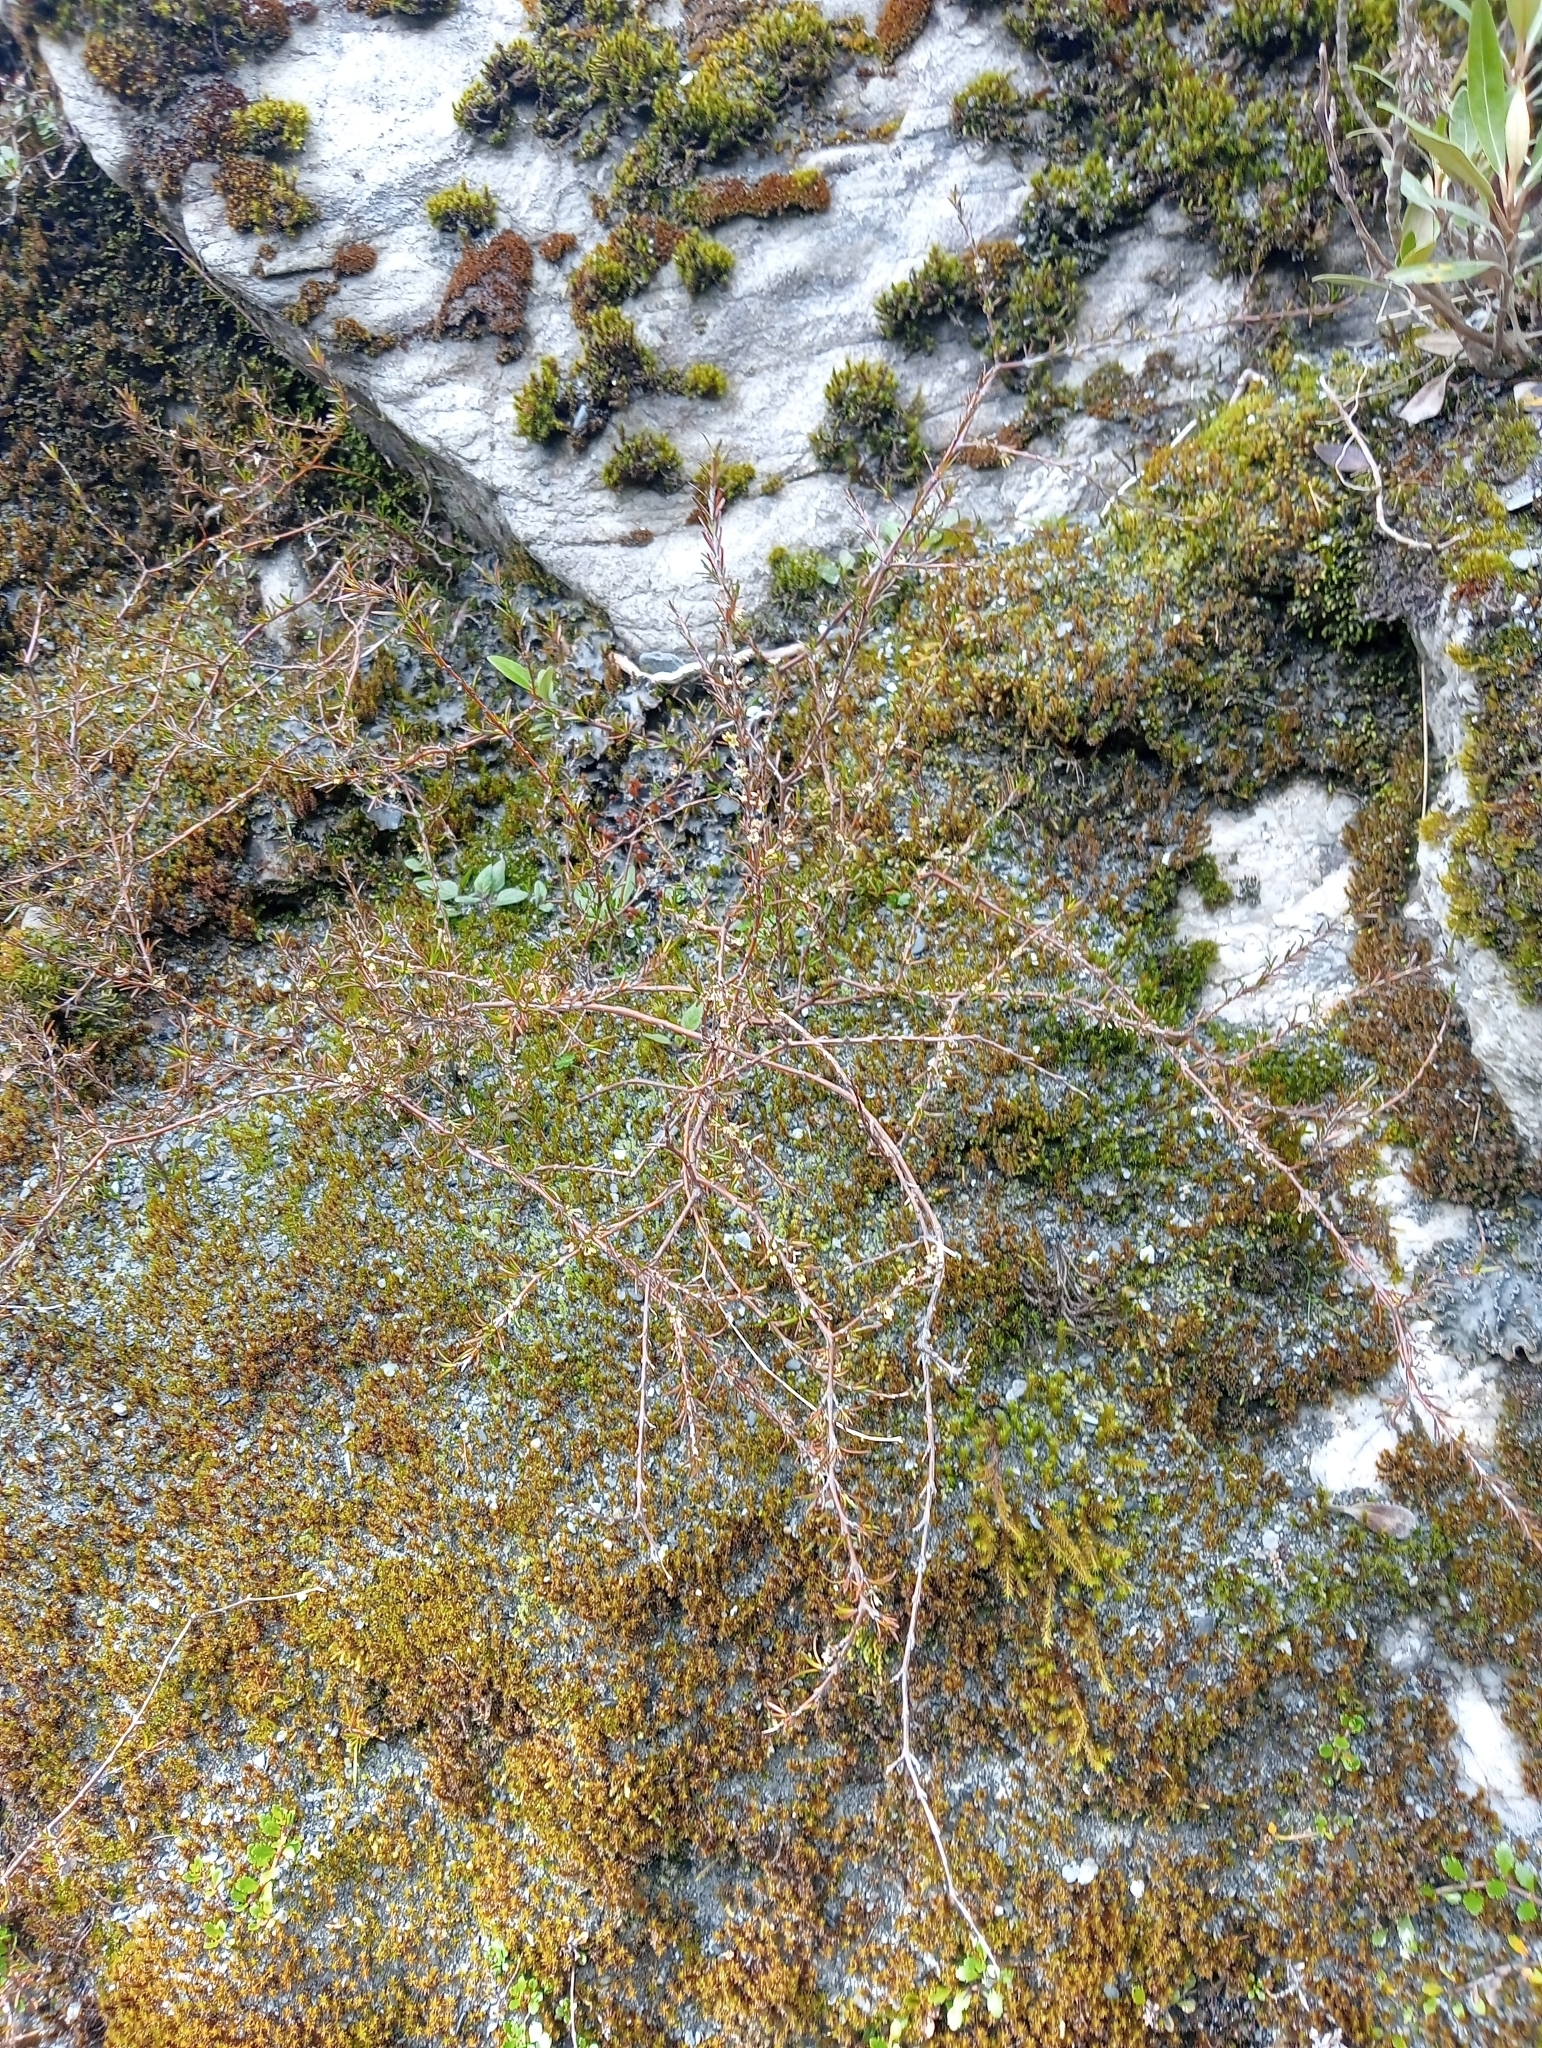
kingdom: Plantae
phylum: Tracheophyta
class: Magnoliopsida
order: Gentianales
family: Rubiaceae
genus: Coprosma
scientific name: Coprosma acerosa
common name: Sand coprosma
